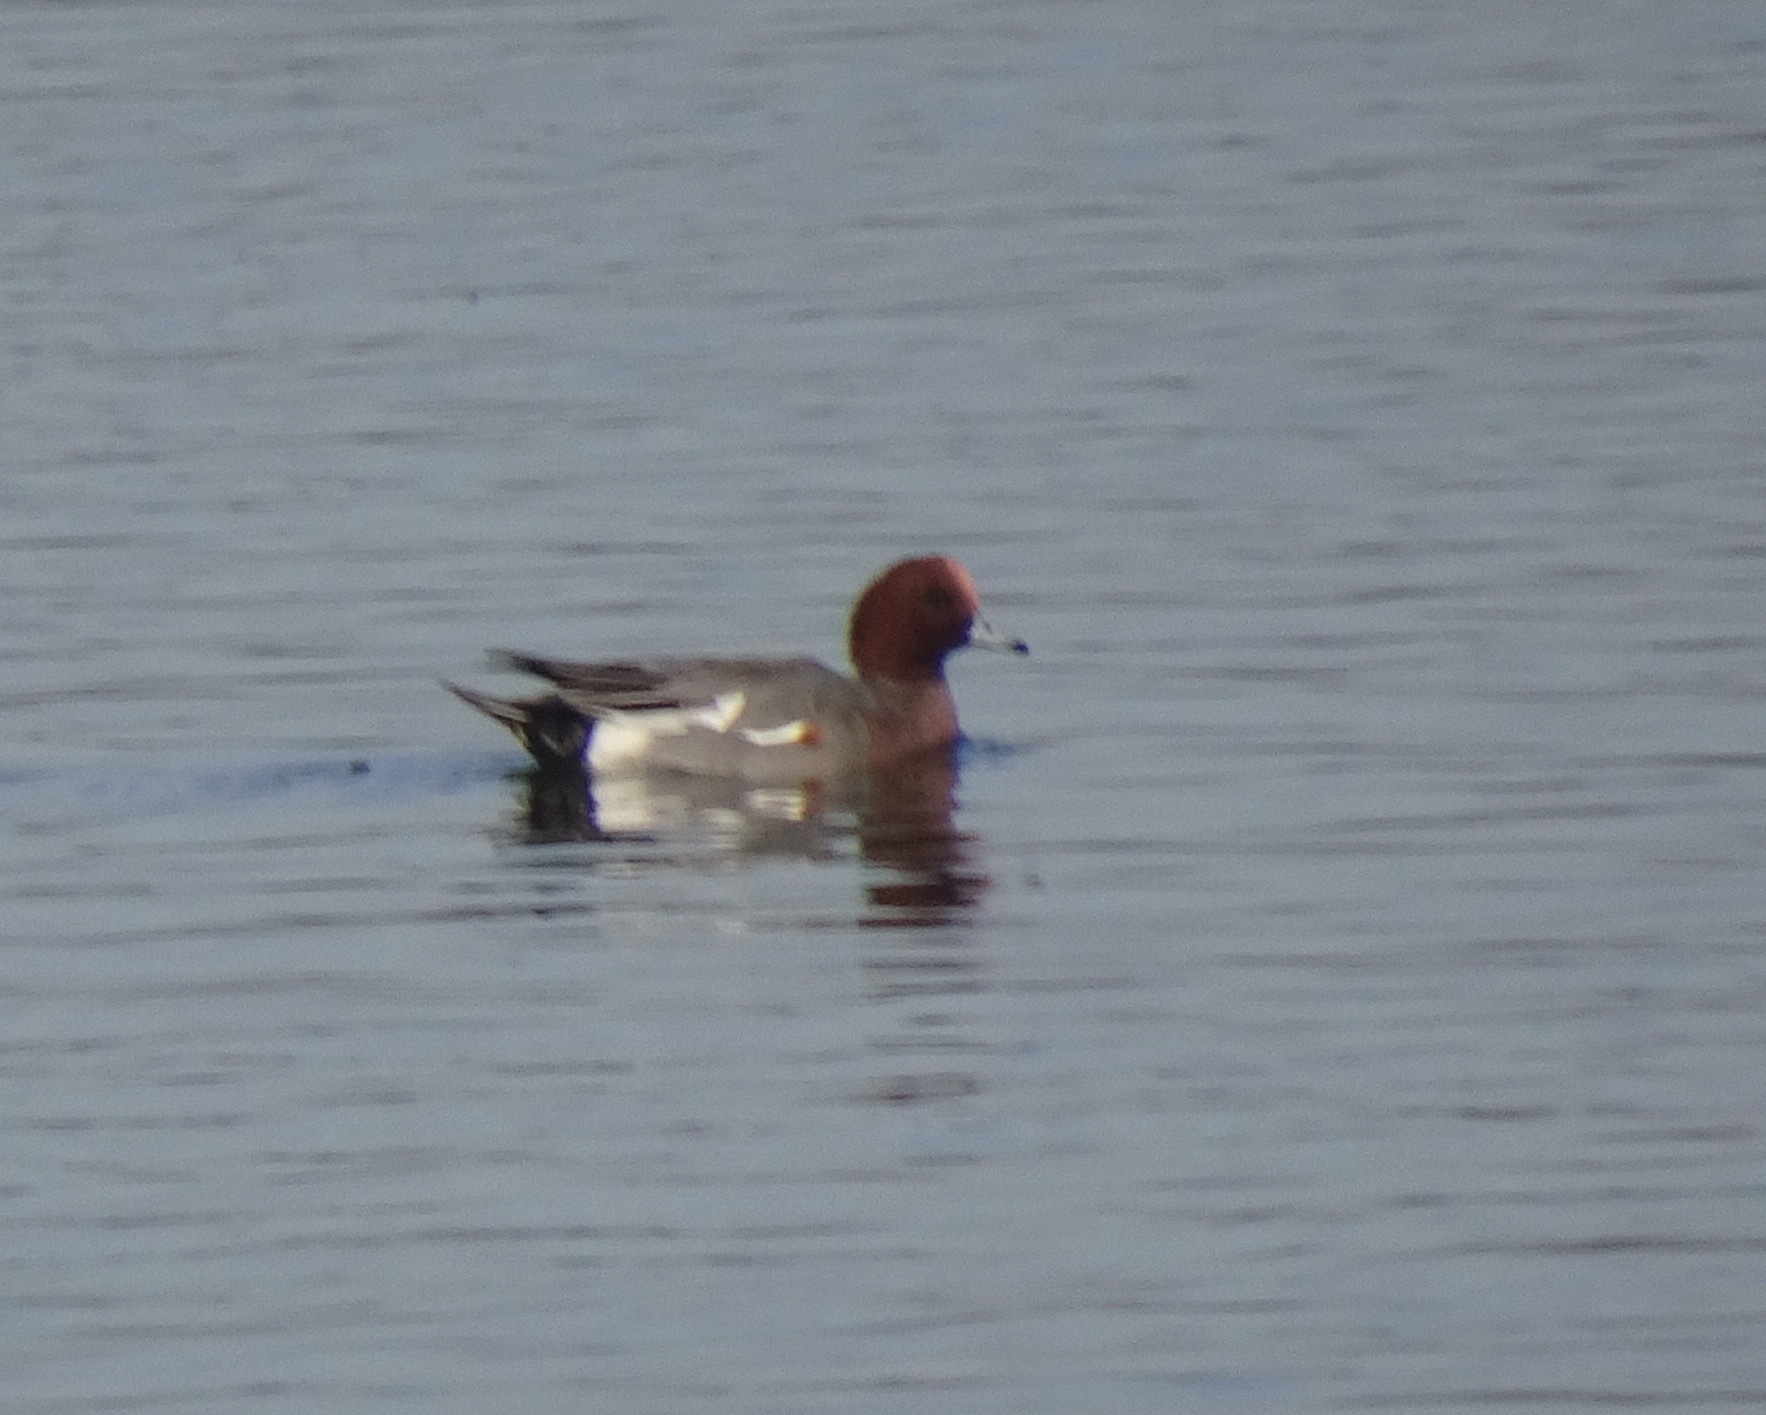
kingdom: Animalia
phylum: Chordata
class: Aves
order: Anseriformes
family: Anatidae
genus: Mareca
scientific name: Mareca penelope
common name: Eurasian wigeon
